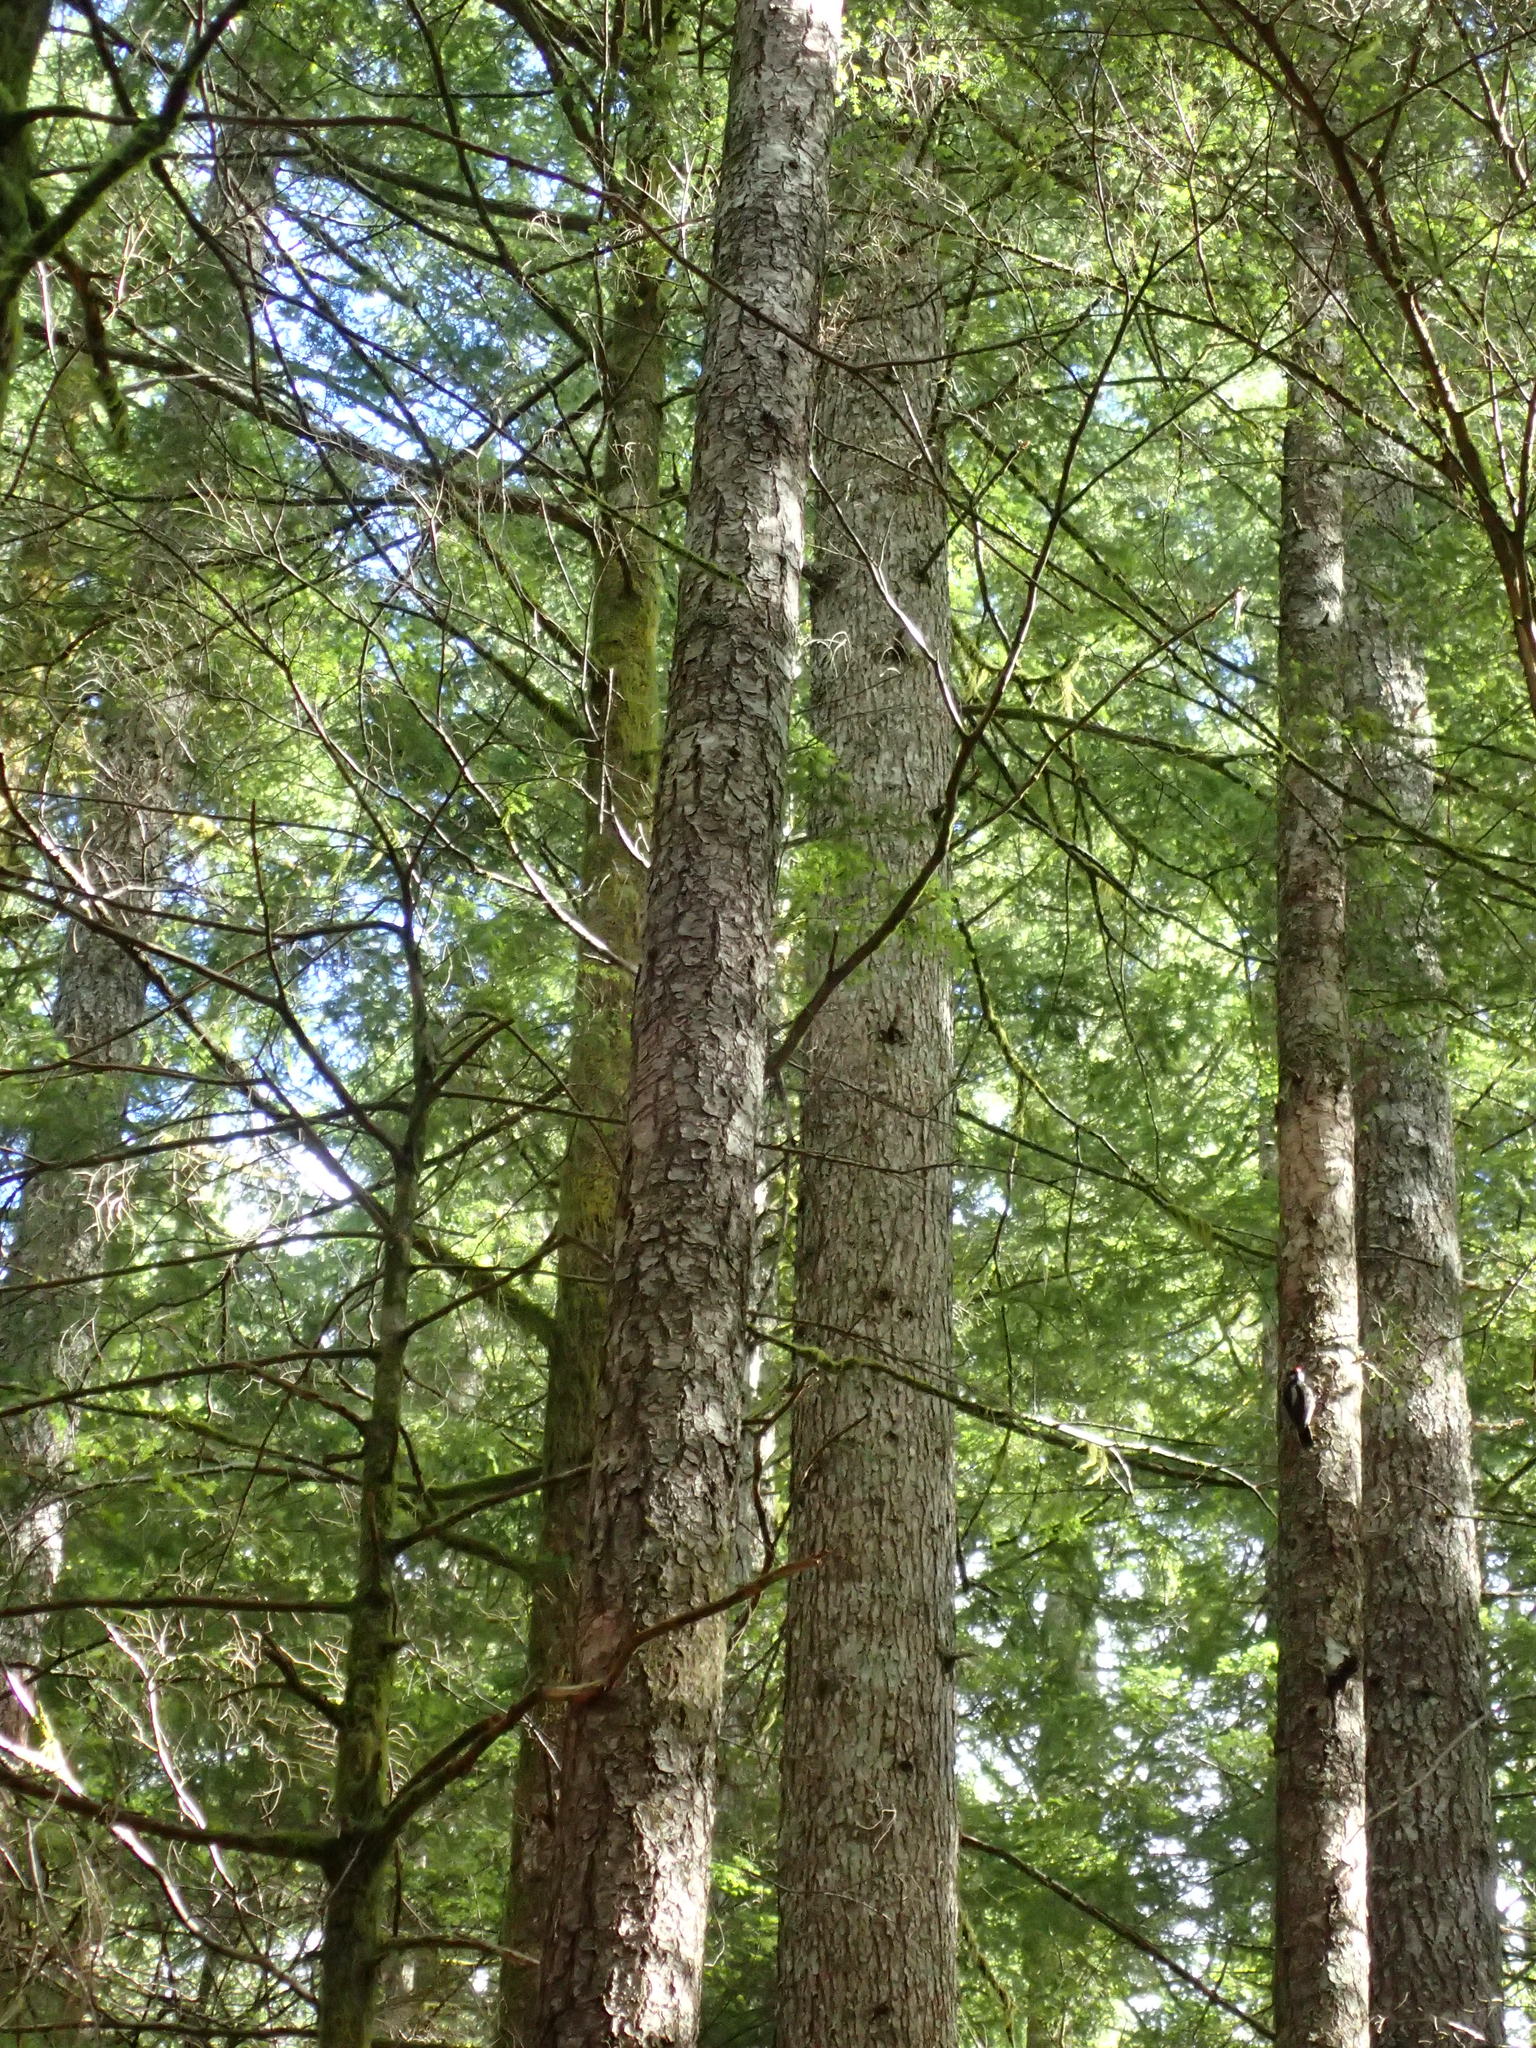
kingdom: Plantae
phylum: Tracheophyta
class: Pinopsida
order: Pinales
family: Pinaceae
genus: Tsuga
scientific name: Tsuga heterophylla
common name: Western hemlock
